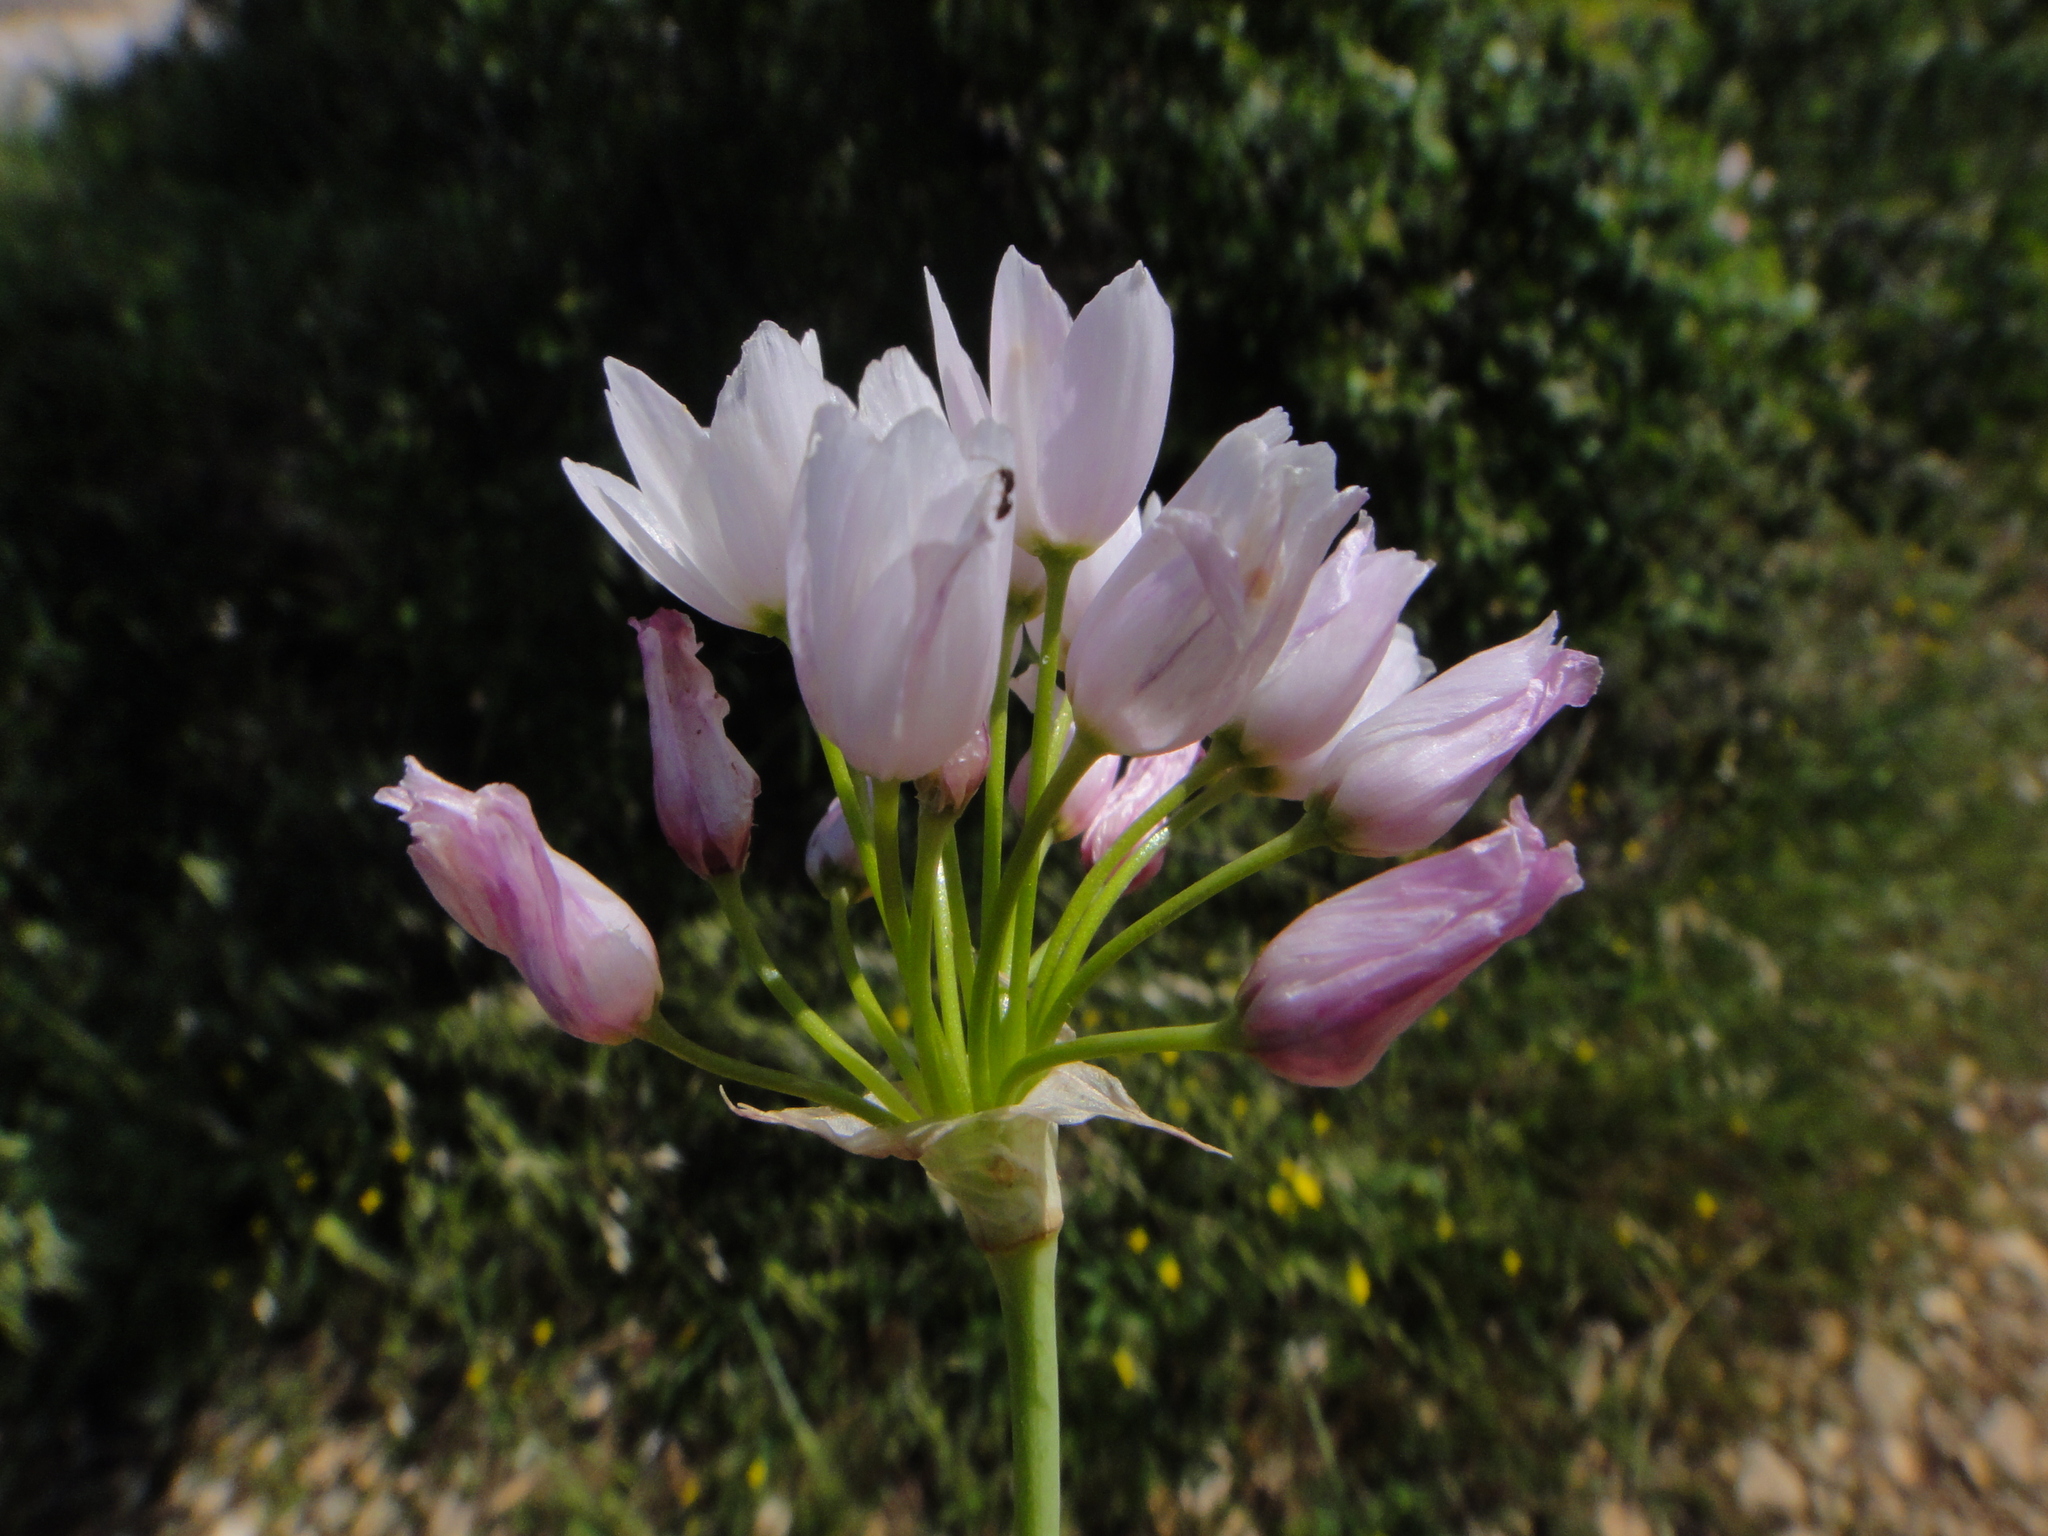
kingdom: Plantae
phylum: Tracheophyta
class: Liliopsida
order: Asparagales
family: Amaryllidaceae
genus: Allium
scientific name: Allium roseum
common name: Rosy garlic
